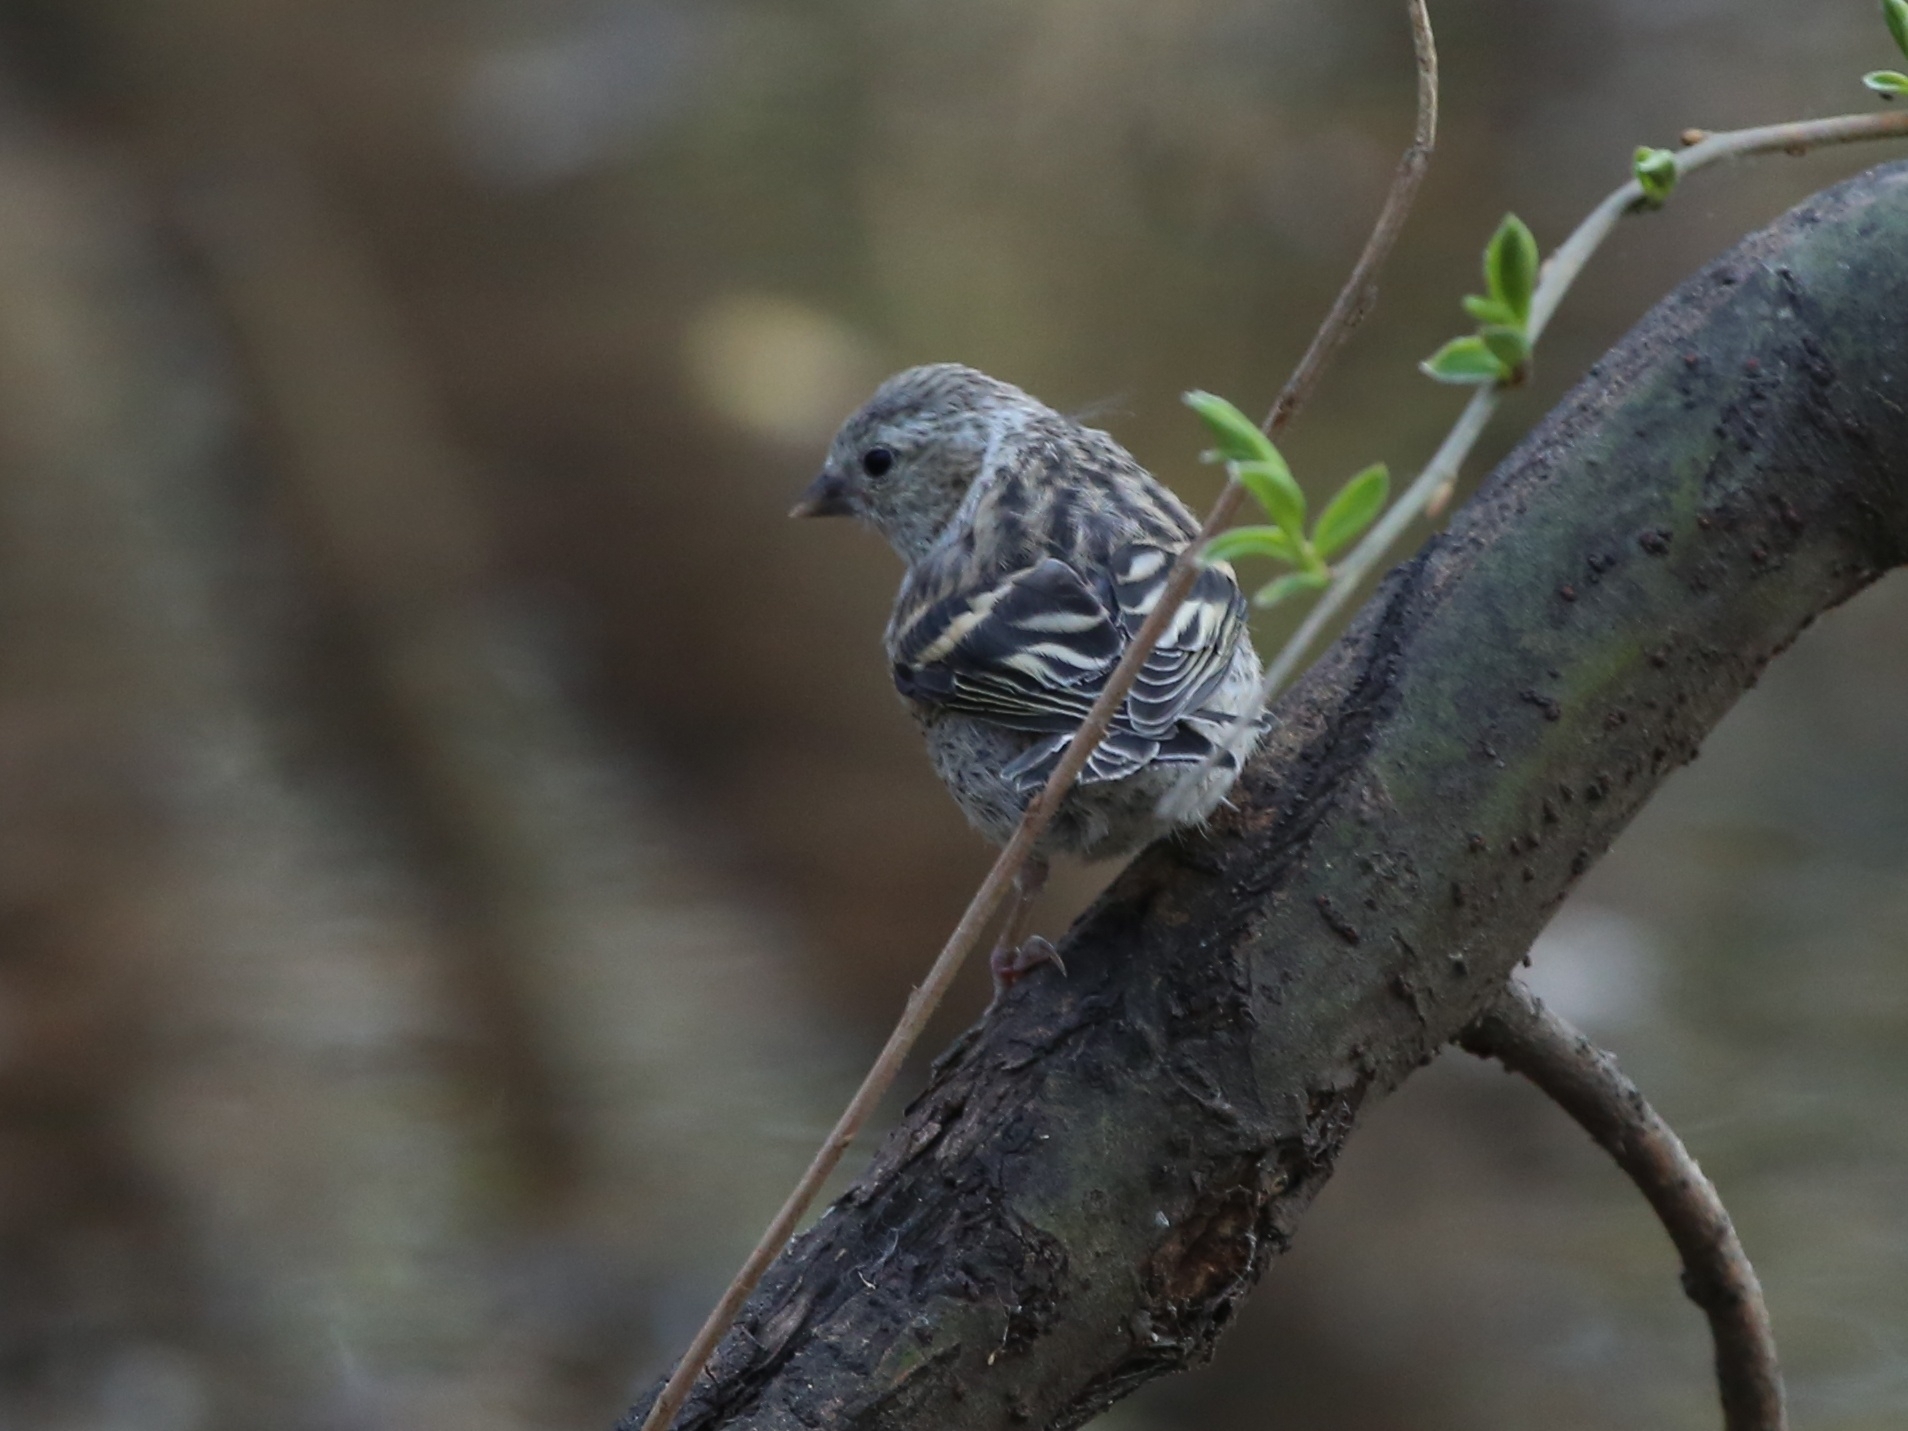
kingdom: Animalia
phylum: Chordata
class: Aves
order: Passeriformes
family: Fringillidae
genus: Spinus
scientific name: Spinus spinus
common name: Eurasian siskin
